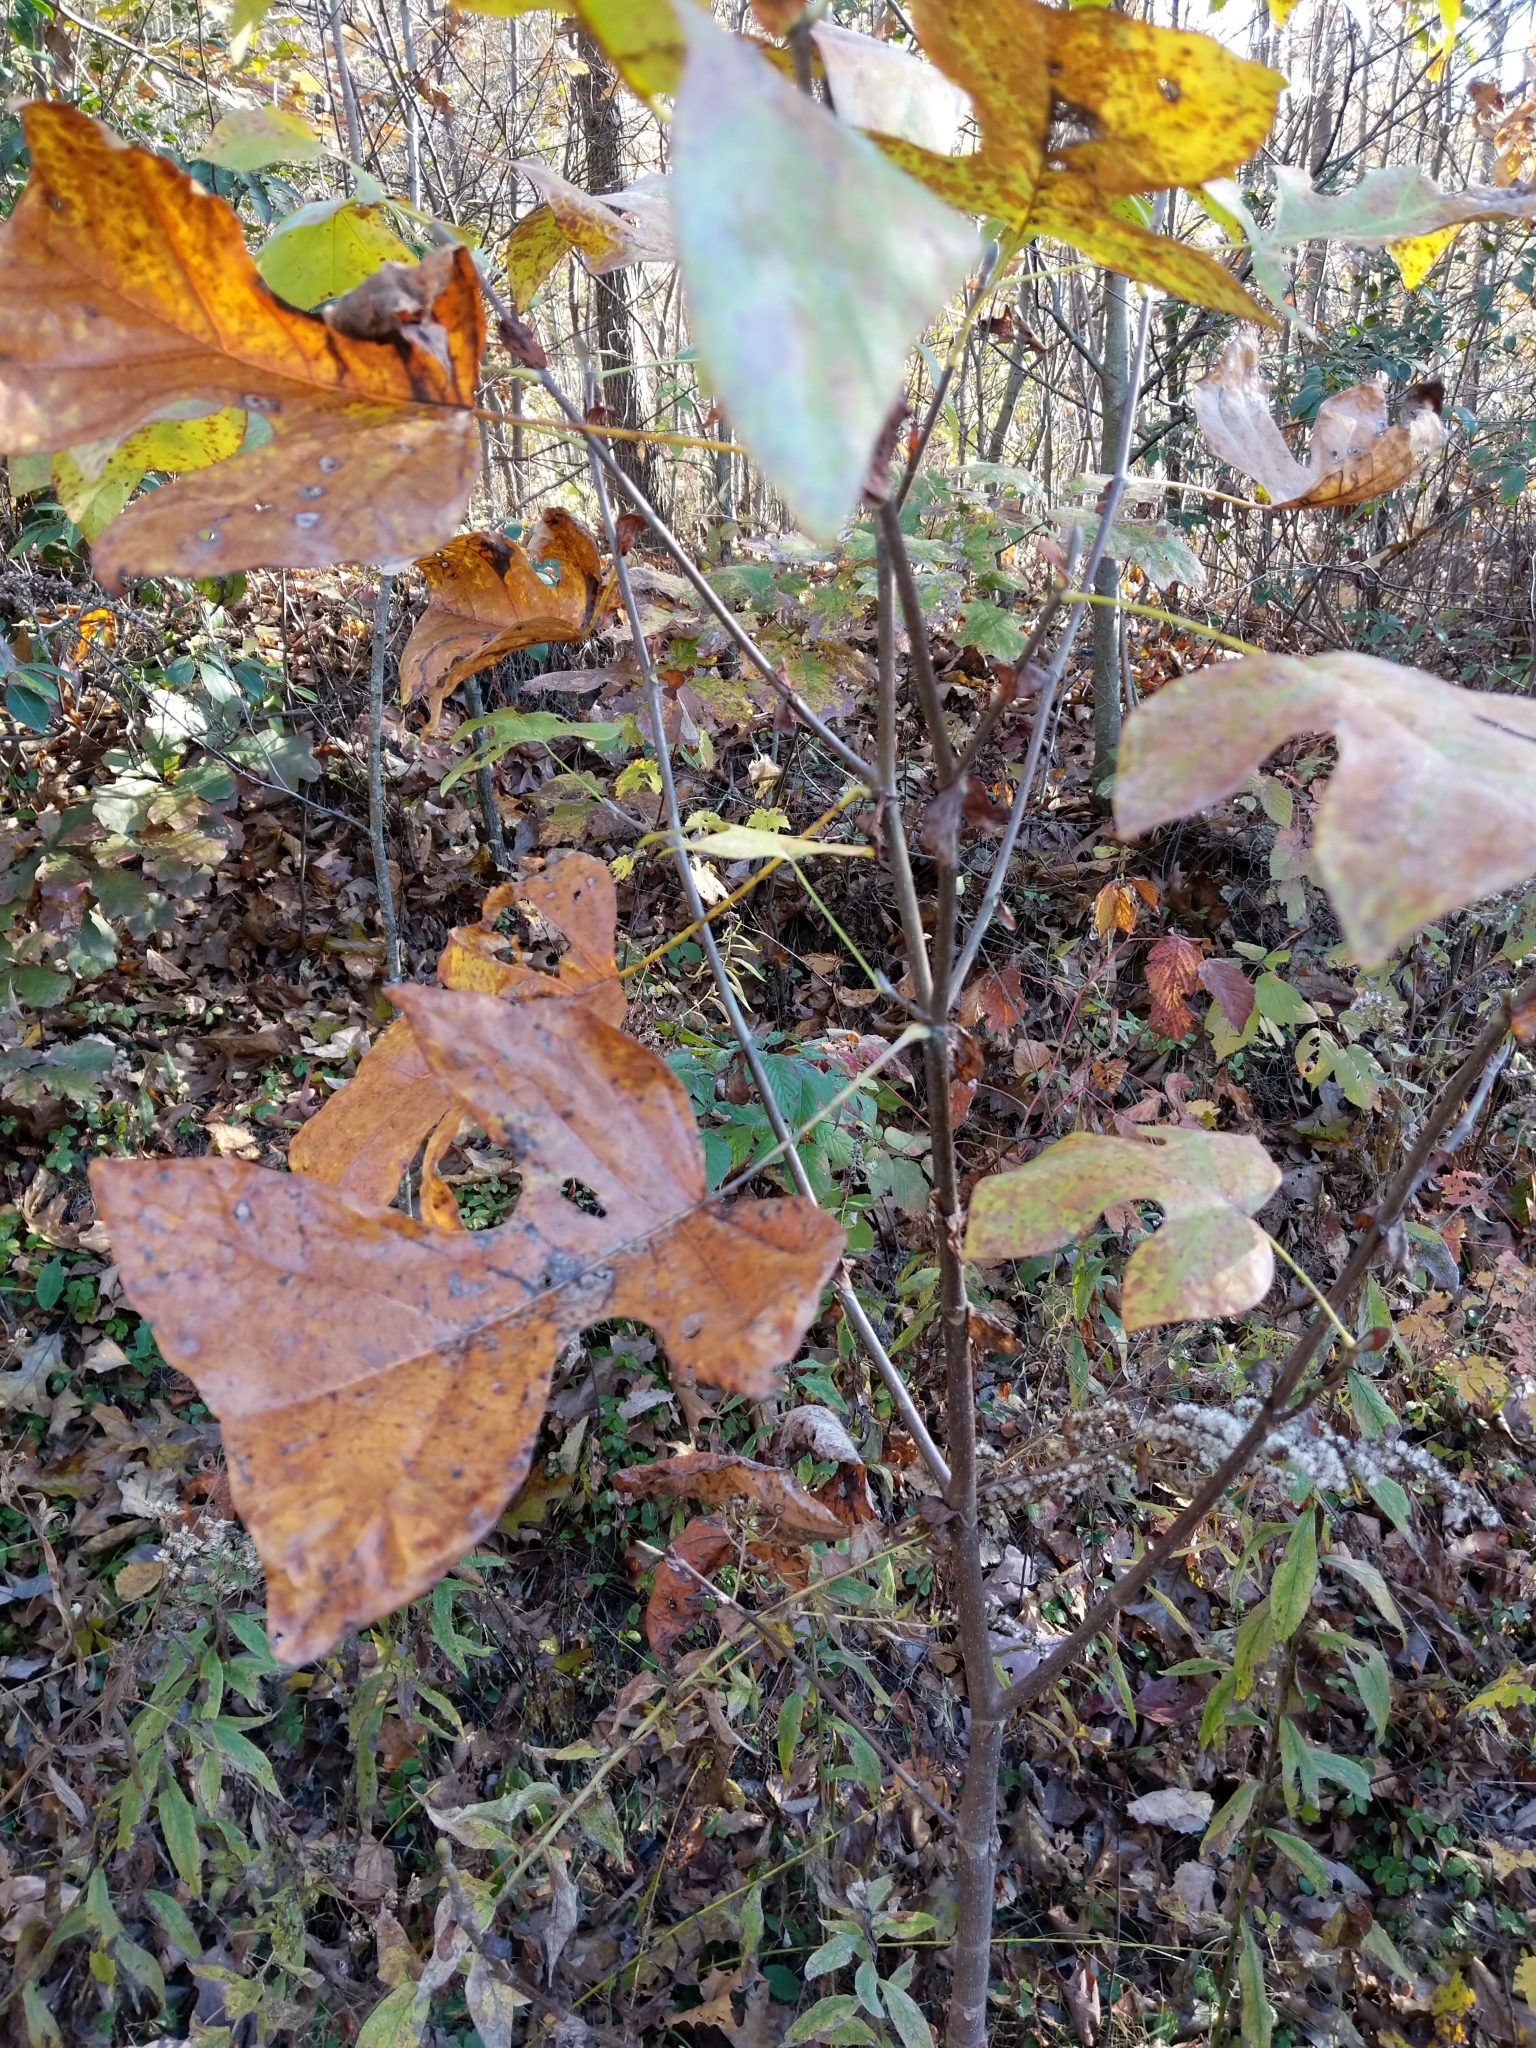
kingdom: Plantae
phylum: Tracheophyta
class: Magnoliopsida
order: Magnoliales
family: Magnoliaceae
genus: Liriodendron
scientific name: Liriodendron tulipifera
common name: Tulip tree
